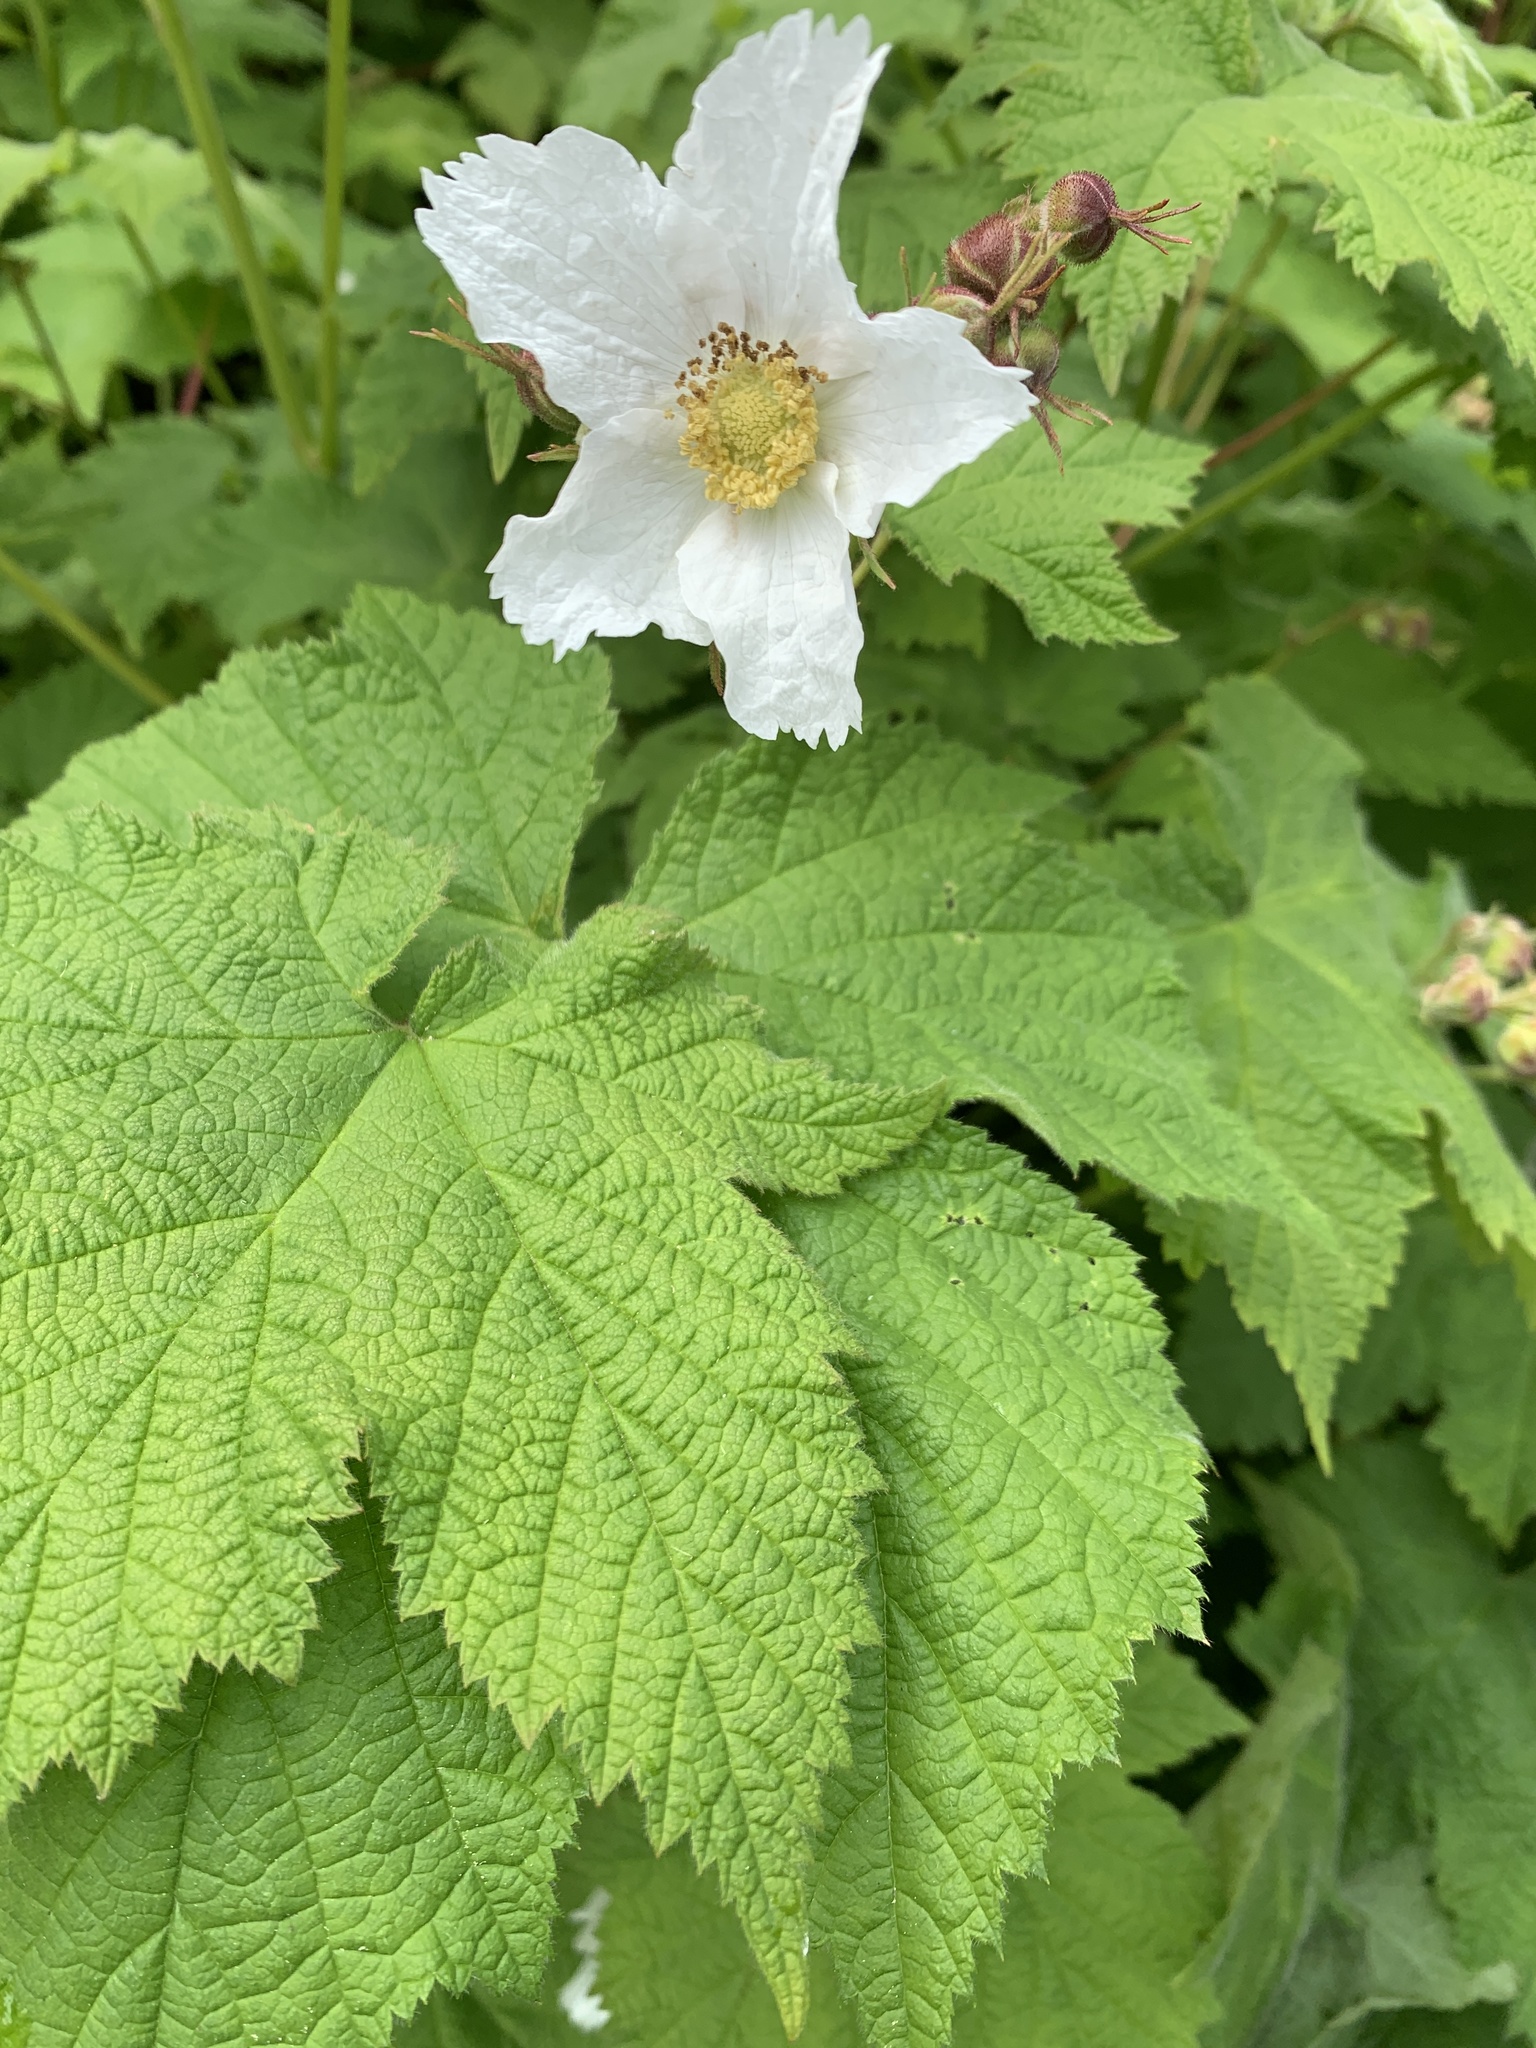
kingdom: Plantae
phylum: Tracheophyta
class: Magnoliopsida
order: Rosales
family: Rosaceae
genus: Rubus
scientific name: Rubus parviflorus
